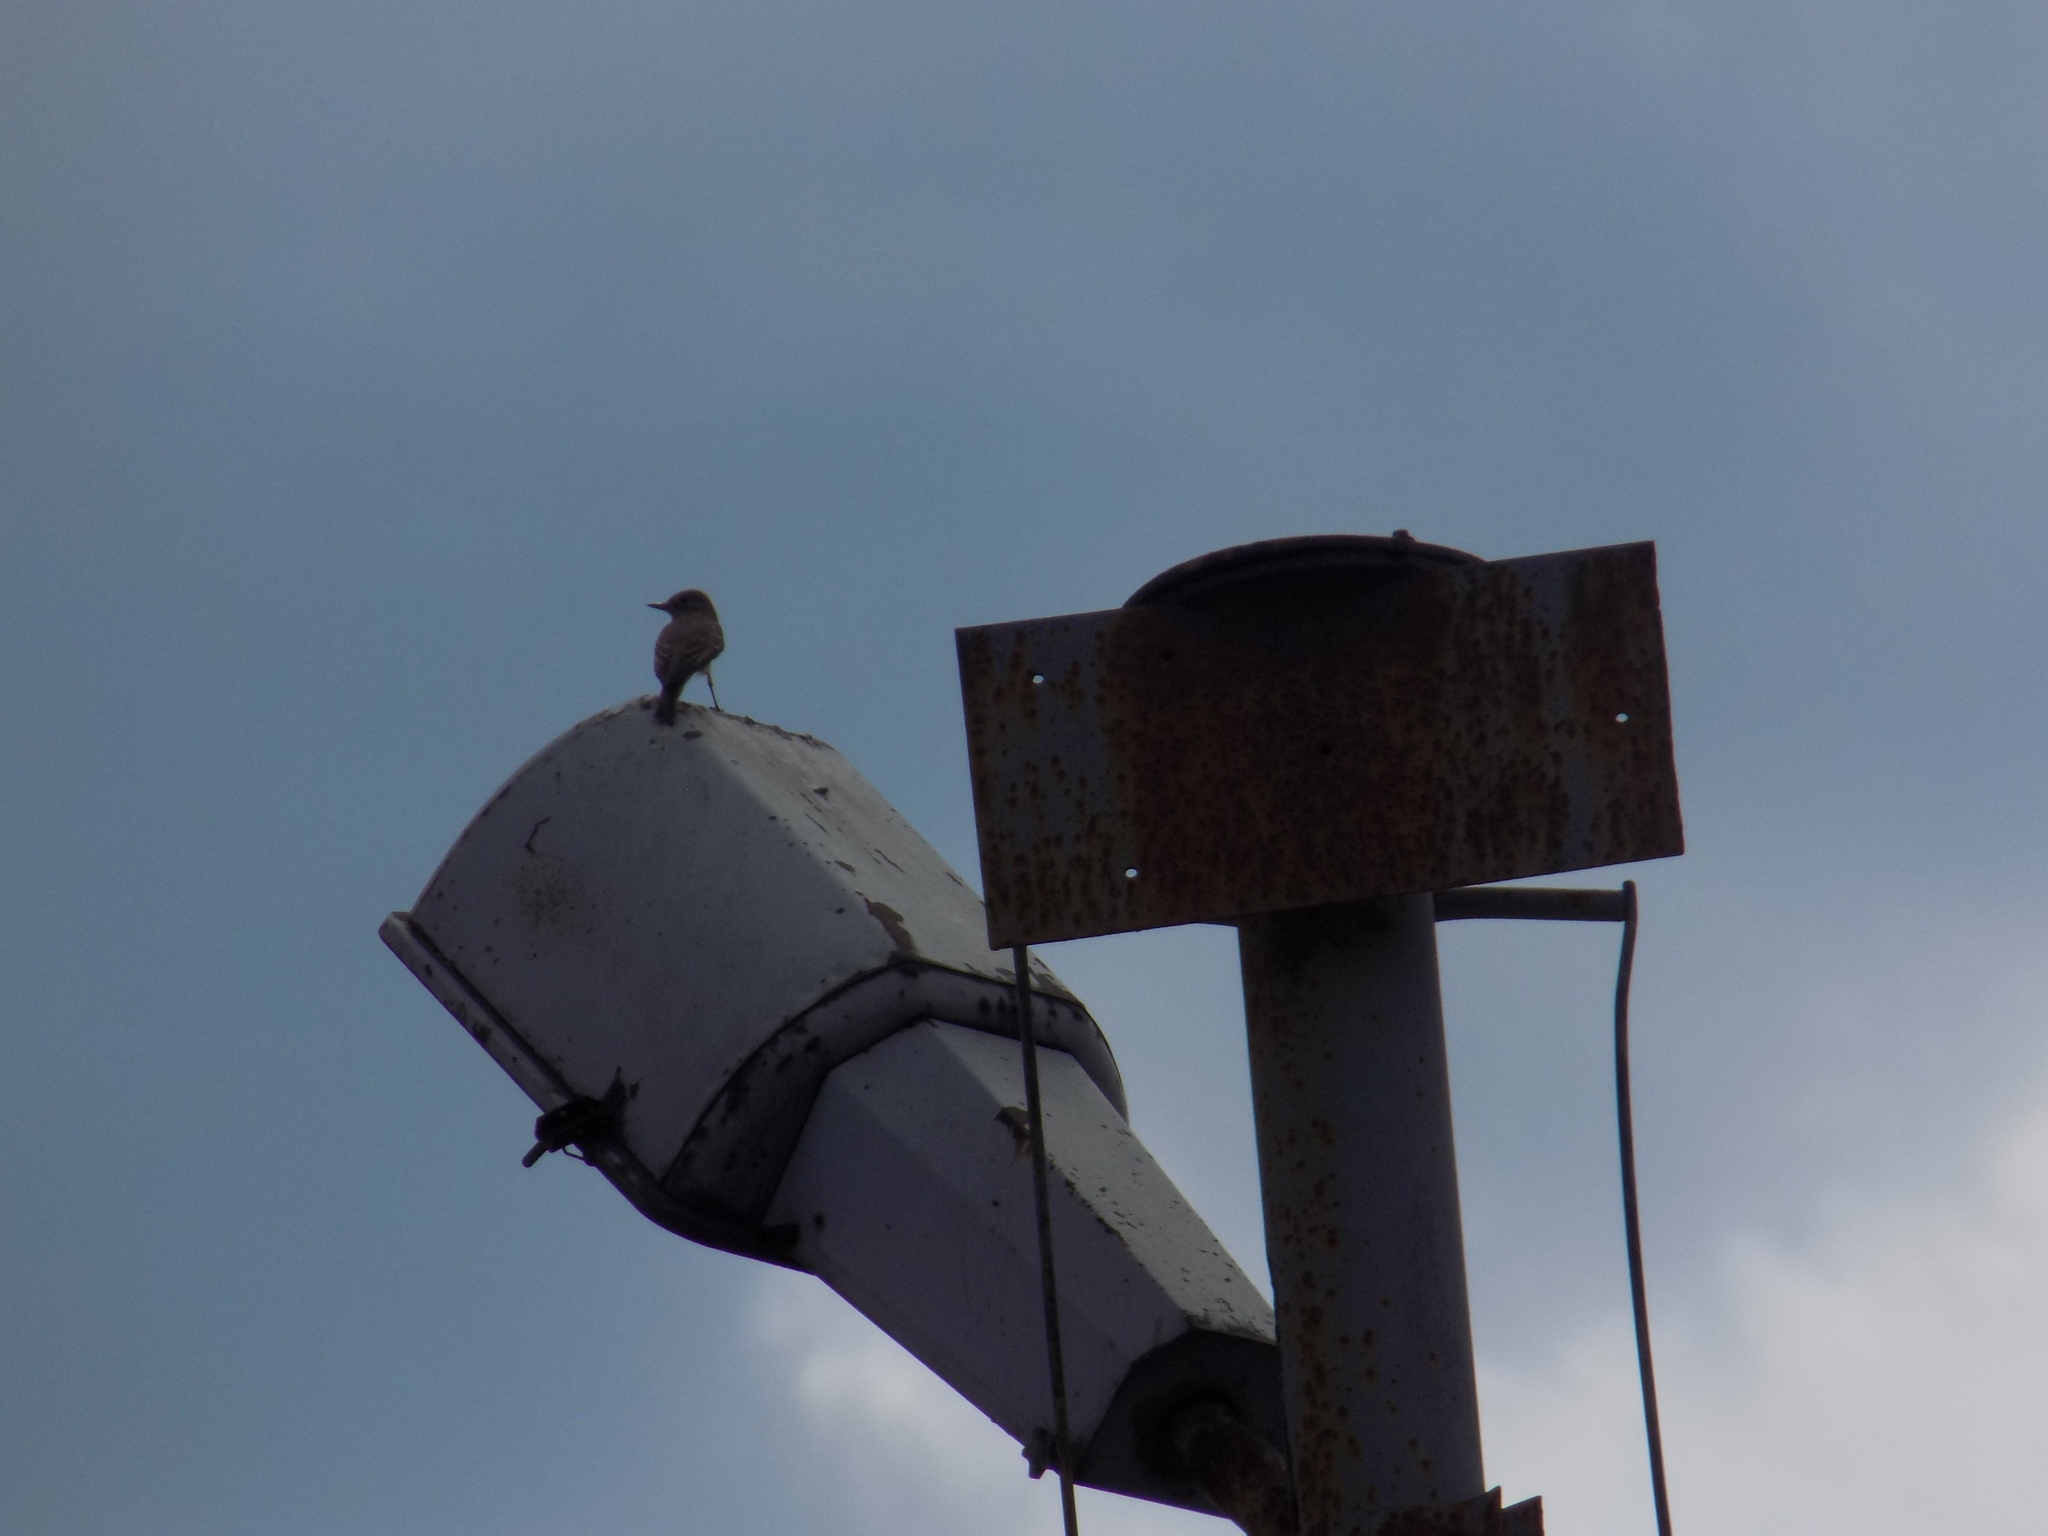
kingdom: Animalia
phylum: Chordata
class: Aves
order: Passeriformes
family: Muscicapidae
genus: Muscicapa
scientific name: Muscicapa striata
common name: Spotted flycatcher
